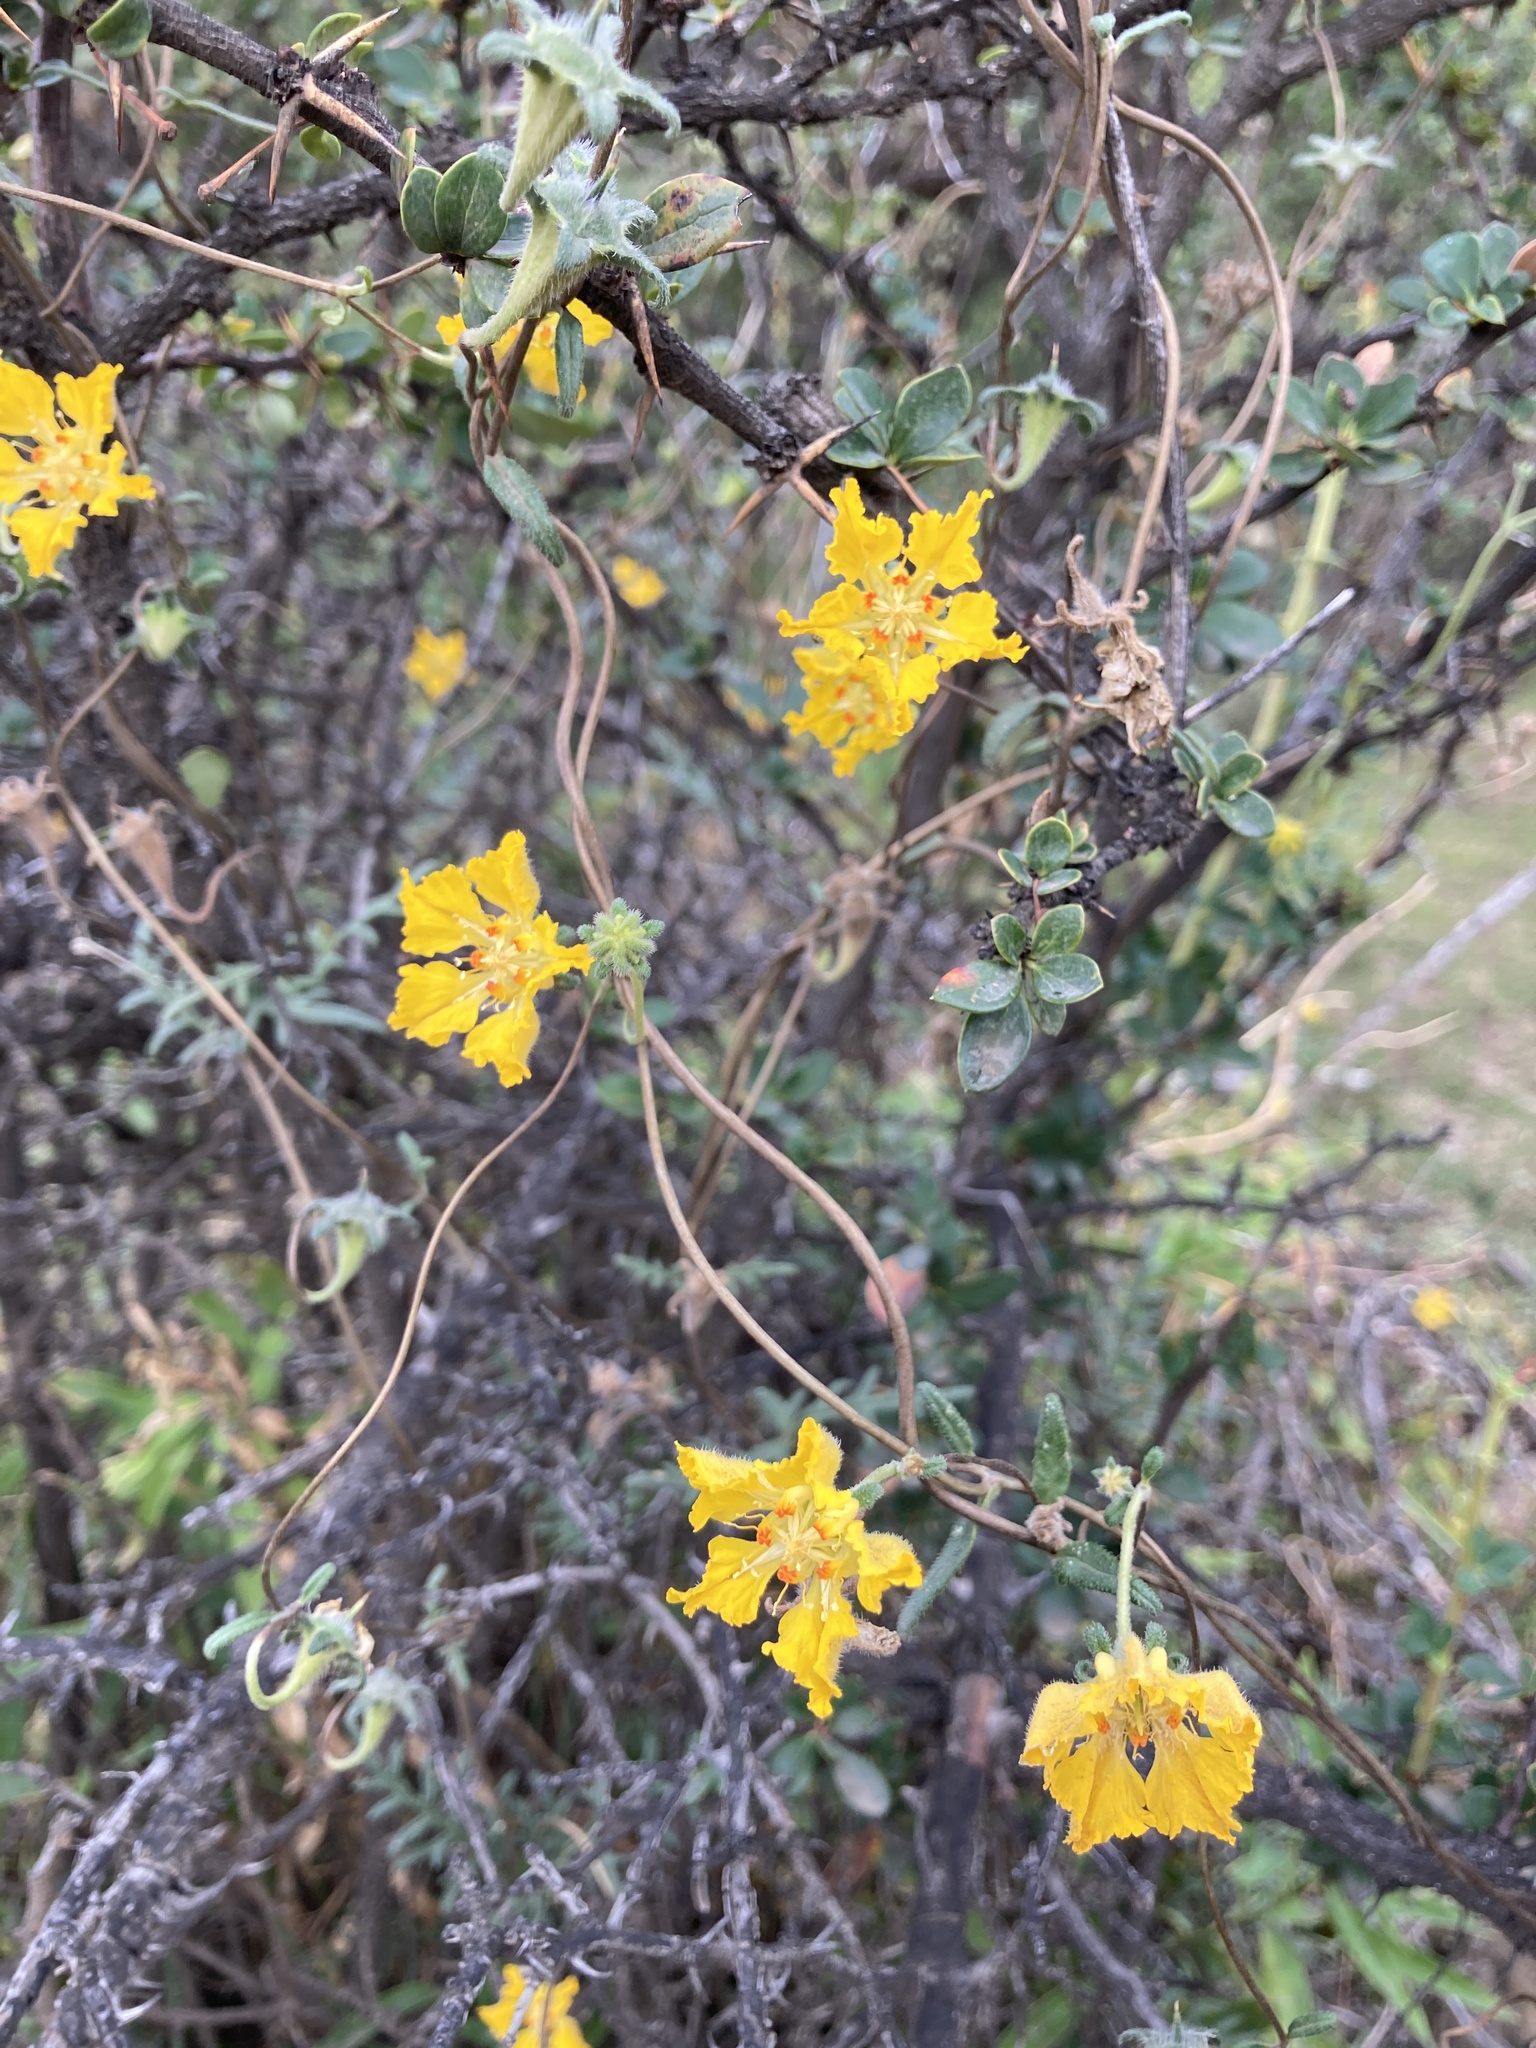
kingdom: Plantae
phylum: Tracheophyta
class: Magnoliopsida
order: Cornales
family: Loasaceae
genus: Pinnasa
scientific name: Pinnasa bergii
